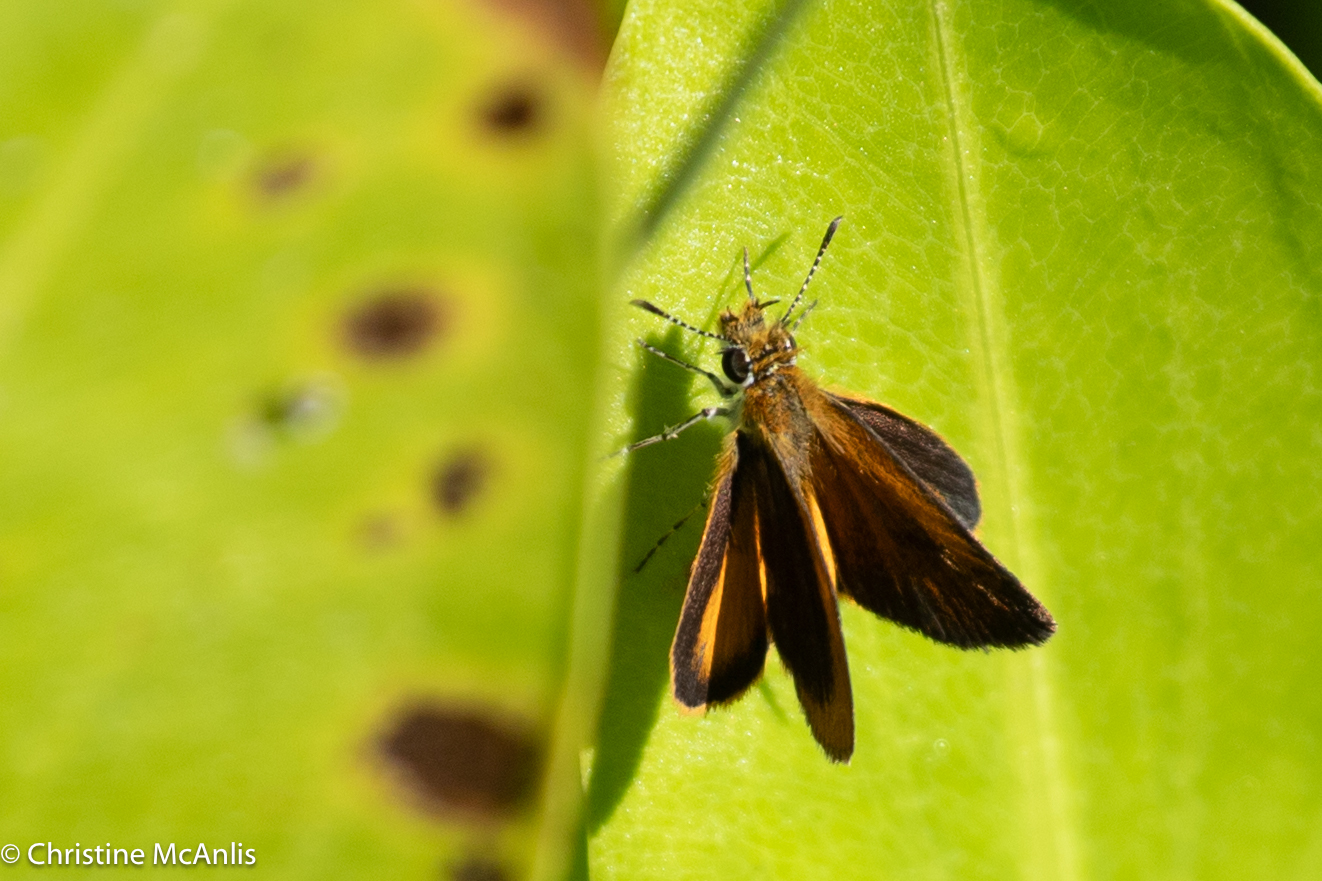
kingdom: Animalia
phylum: Arthropoda
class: Insecta
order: Lepidoptera
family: Hesperiidae
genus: Ancyloxypha
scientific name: Ancyloxypha numitor
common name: Least skipper
